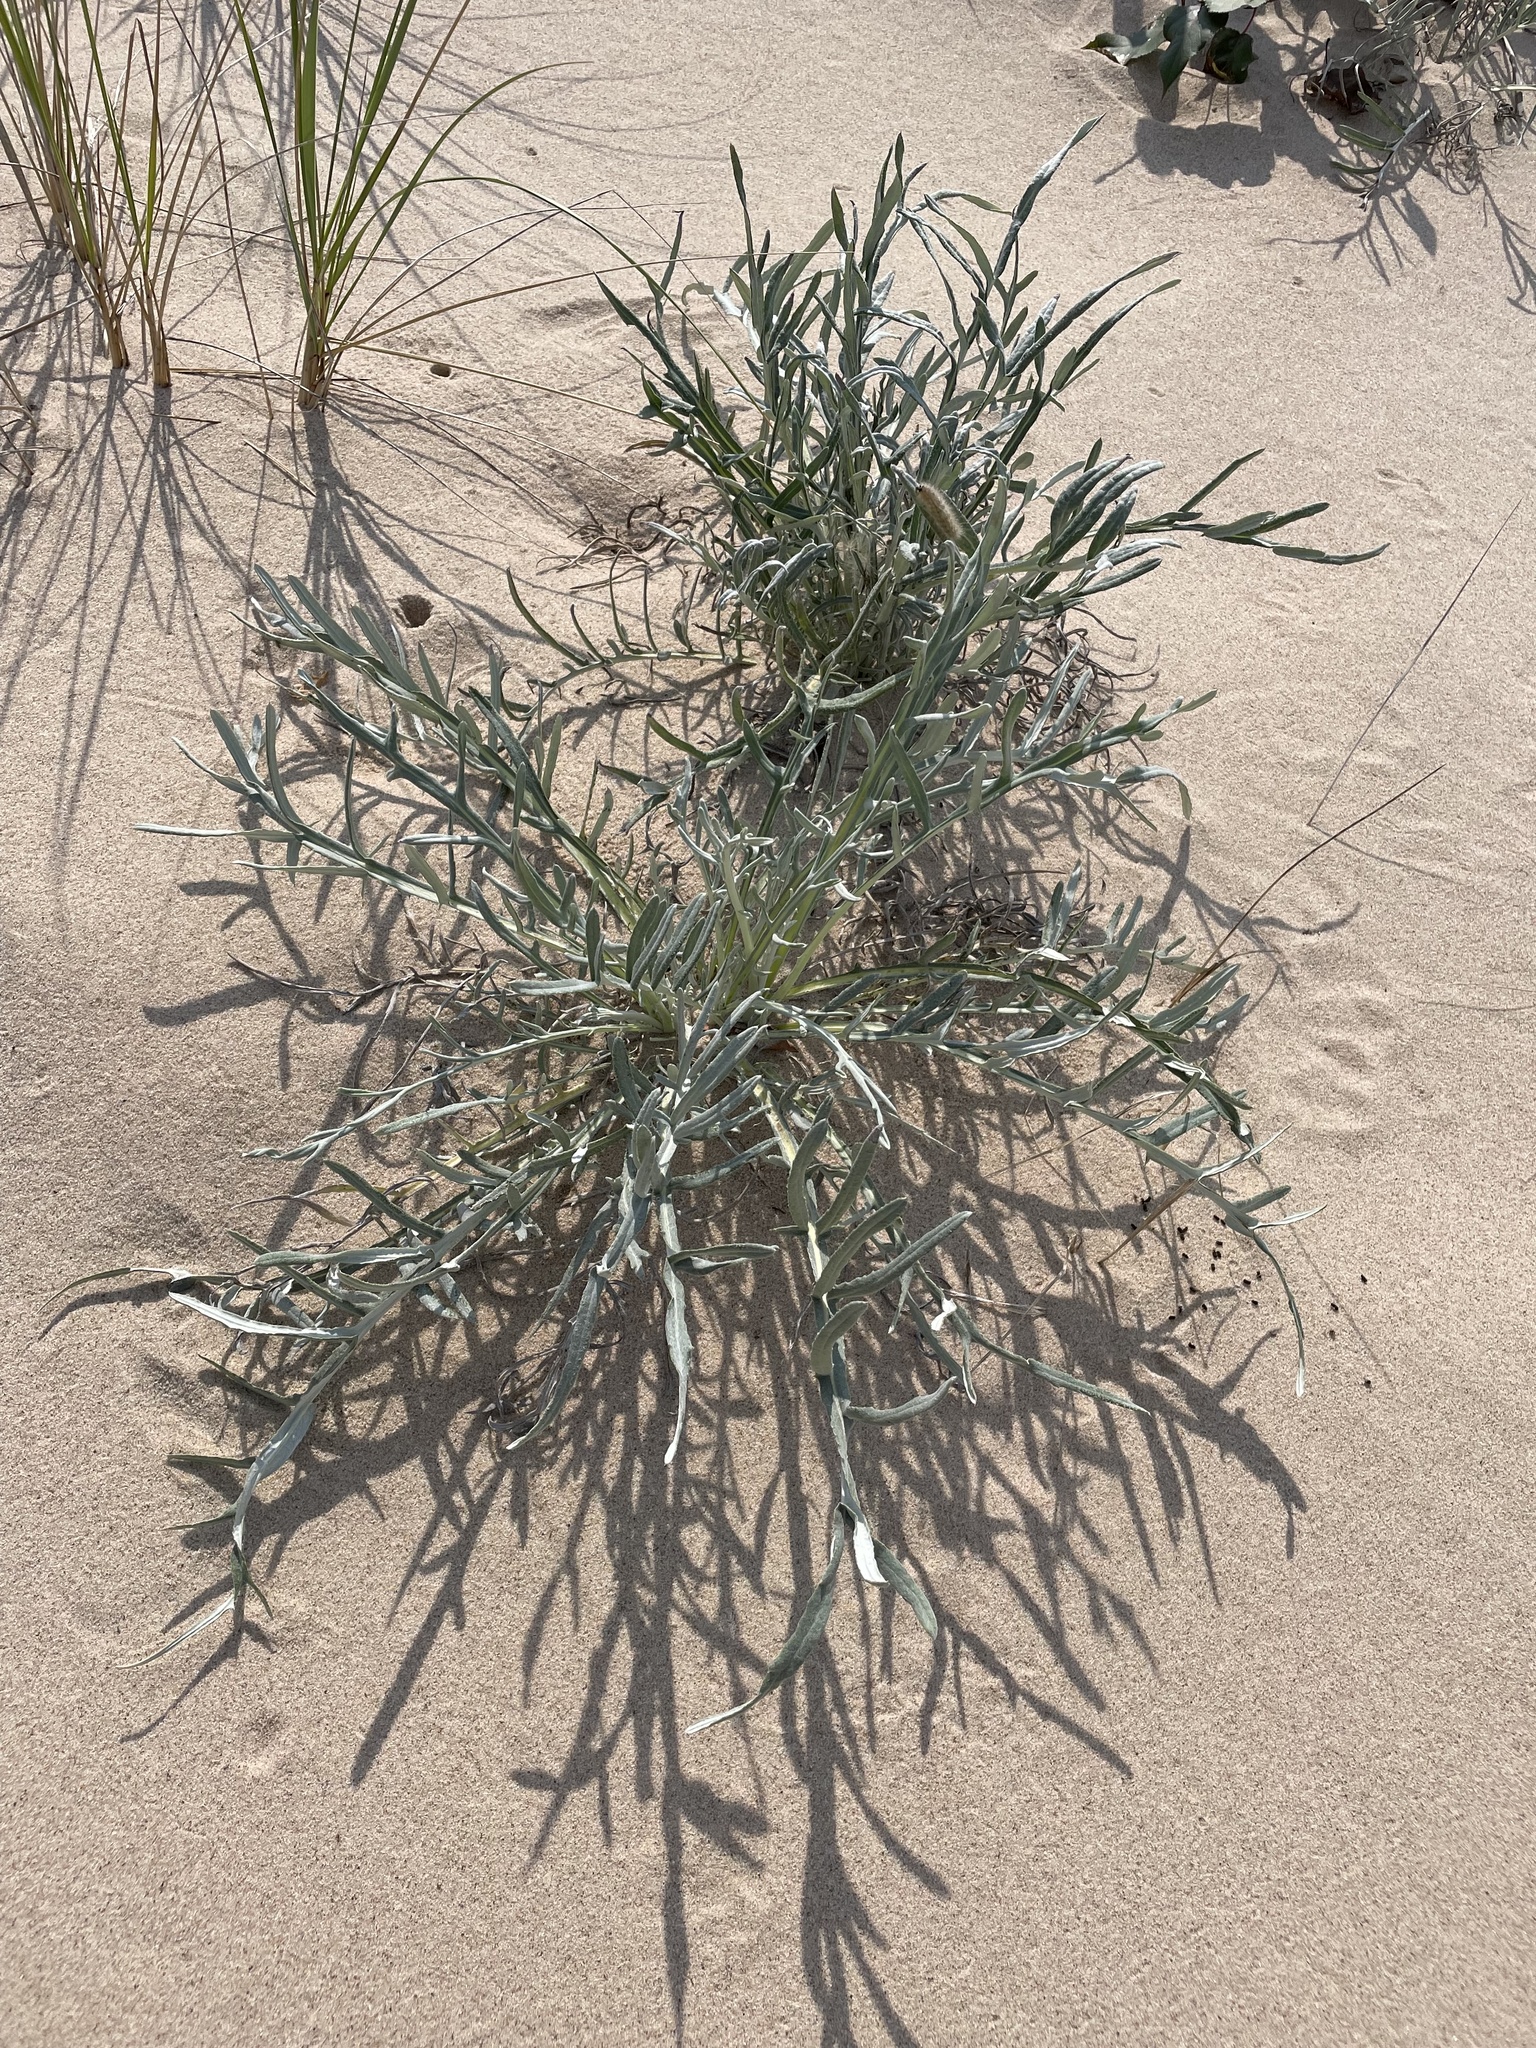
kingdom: Plantae
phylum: Tracheophyta
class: Magnoliopsida
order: Asterales
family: Asteraceae
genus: Cirsium
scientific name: Cirsium pitcheri
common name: Dune thistle
